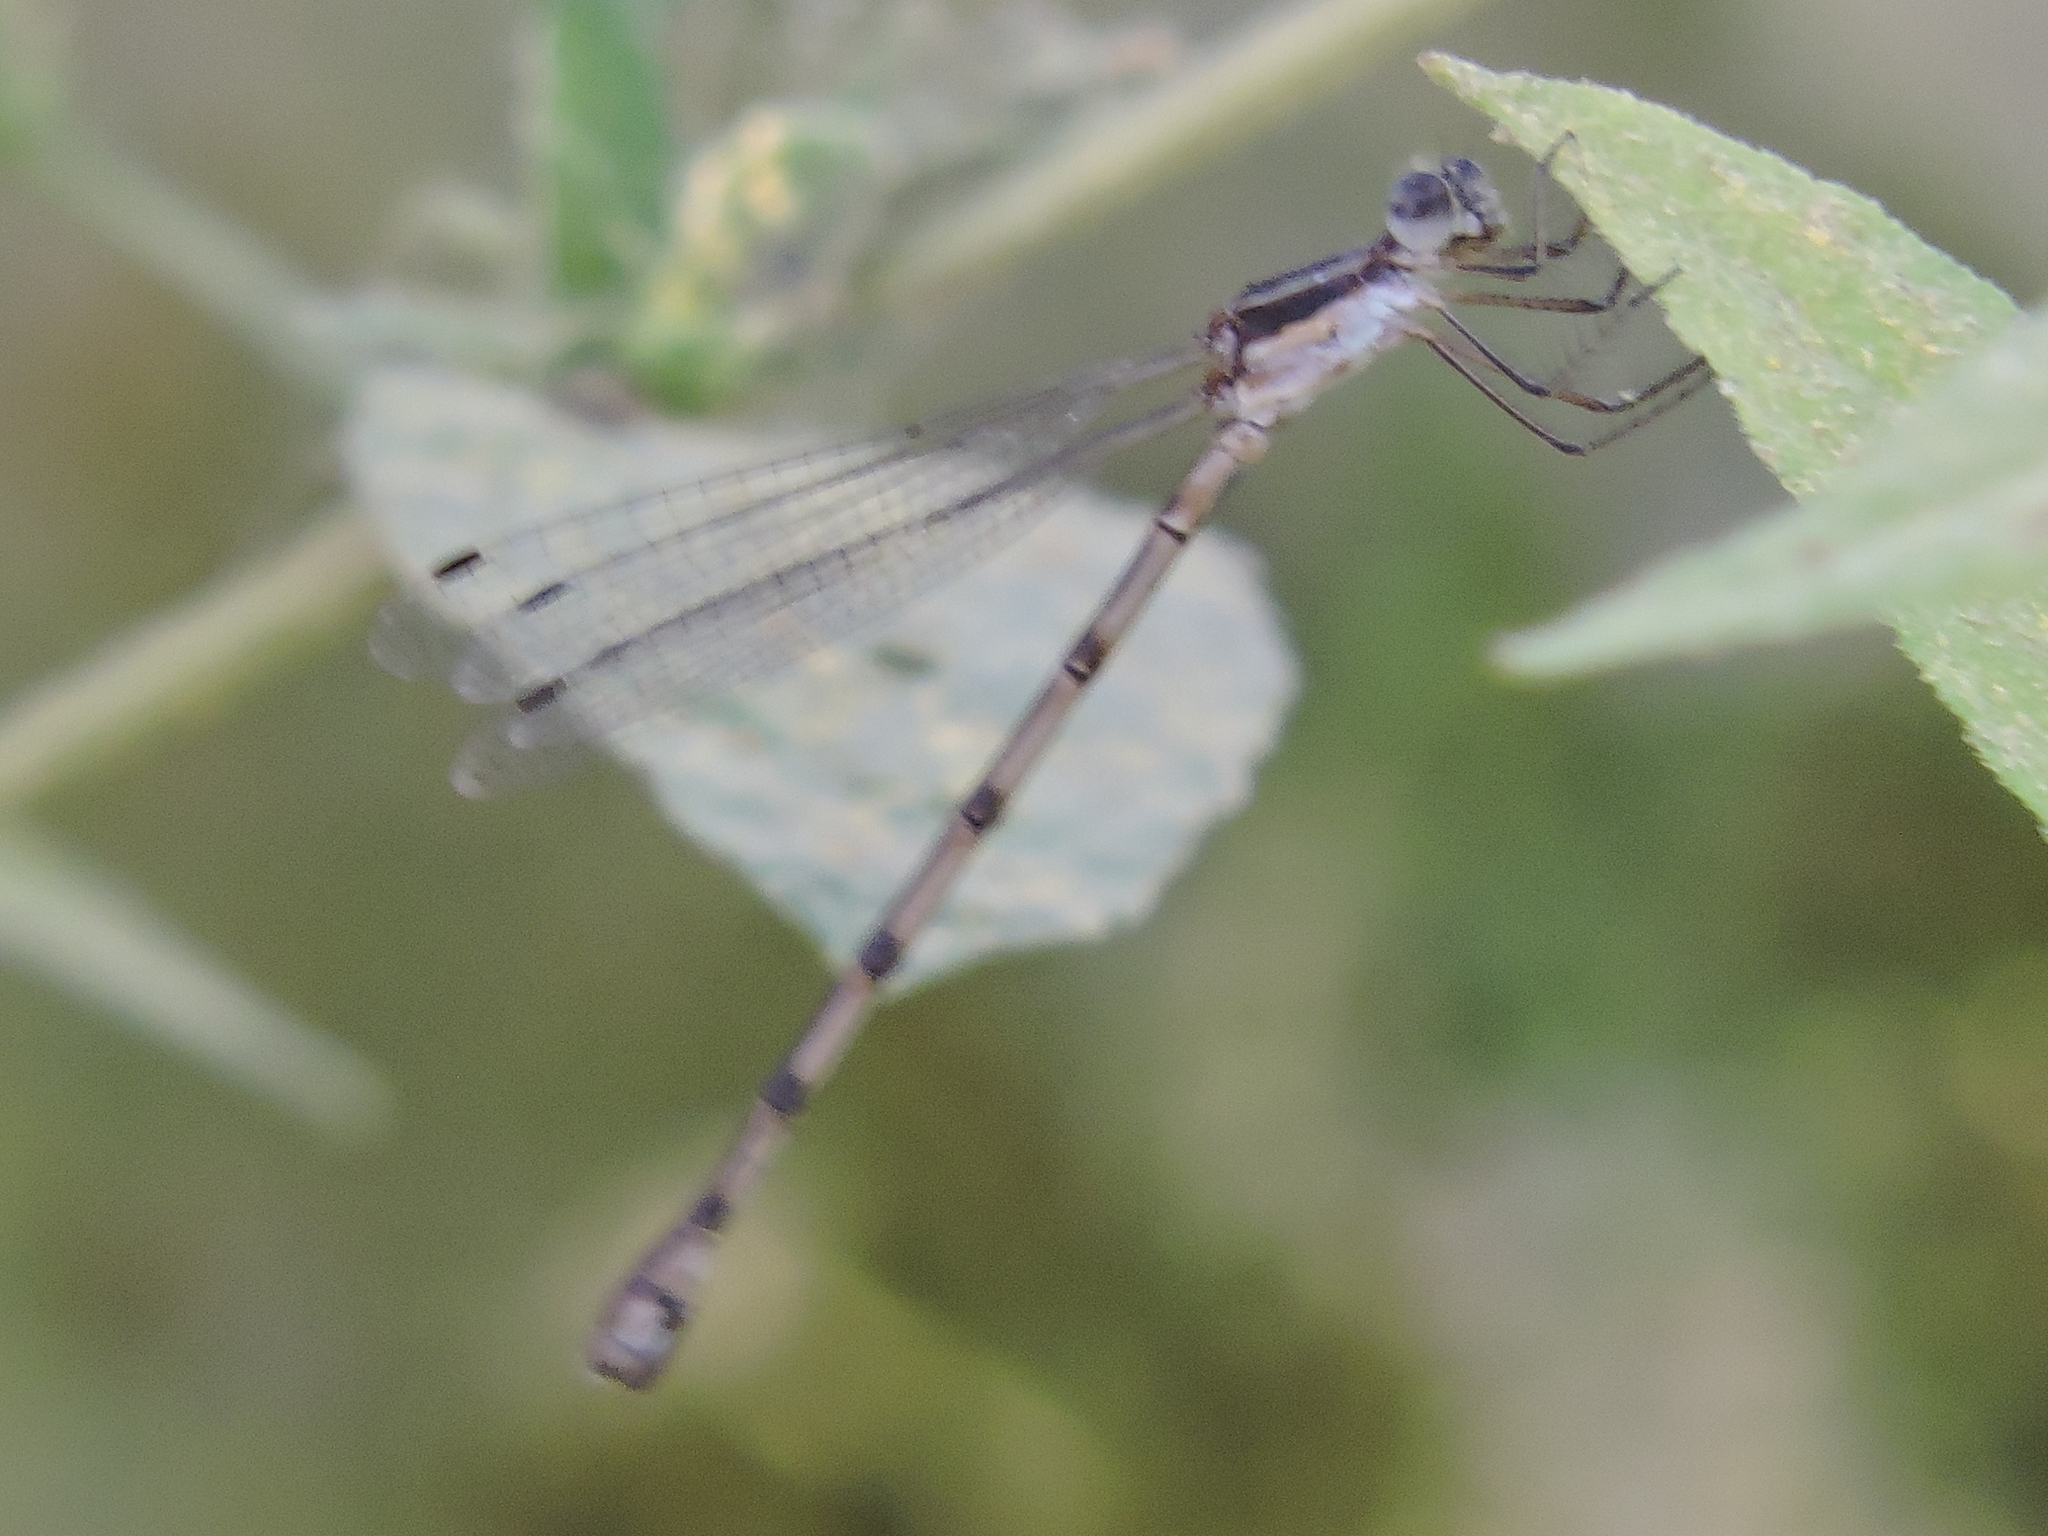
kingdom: Animalia
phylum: Arthropoda
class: Insecta
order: Odonata
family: Lestidae
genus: Lestes
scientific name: Lestes australis
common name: Southern spreadwing
